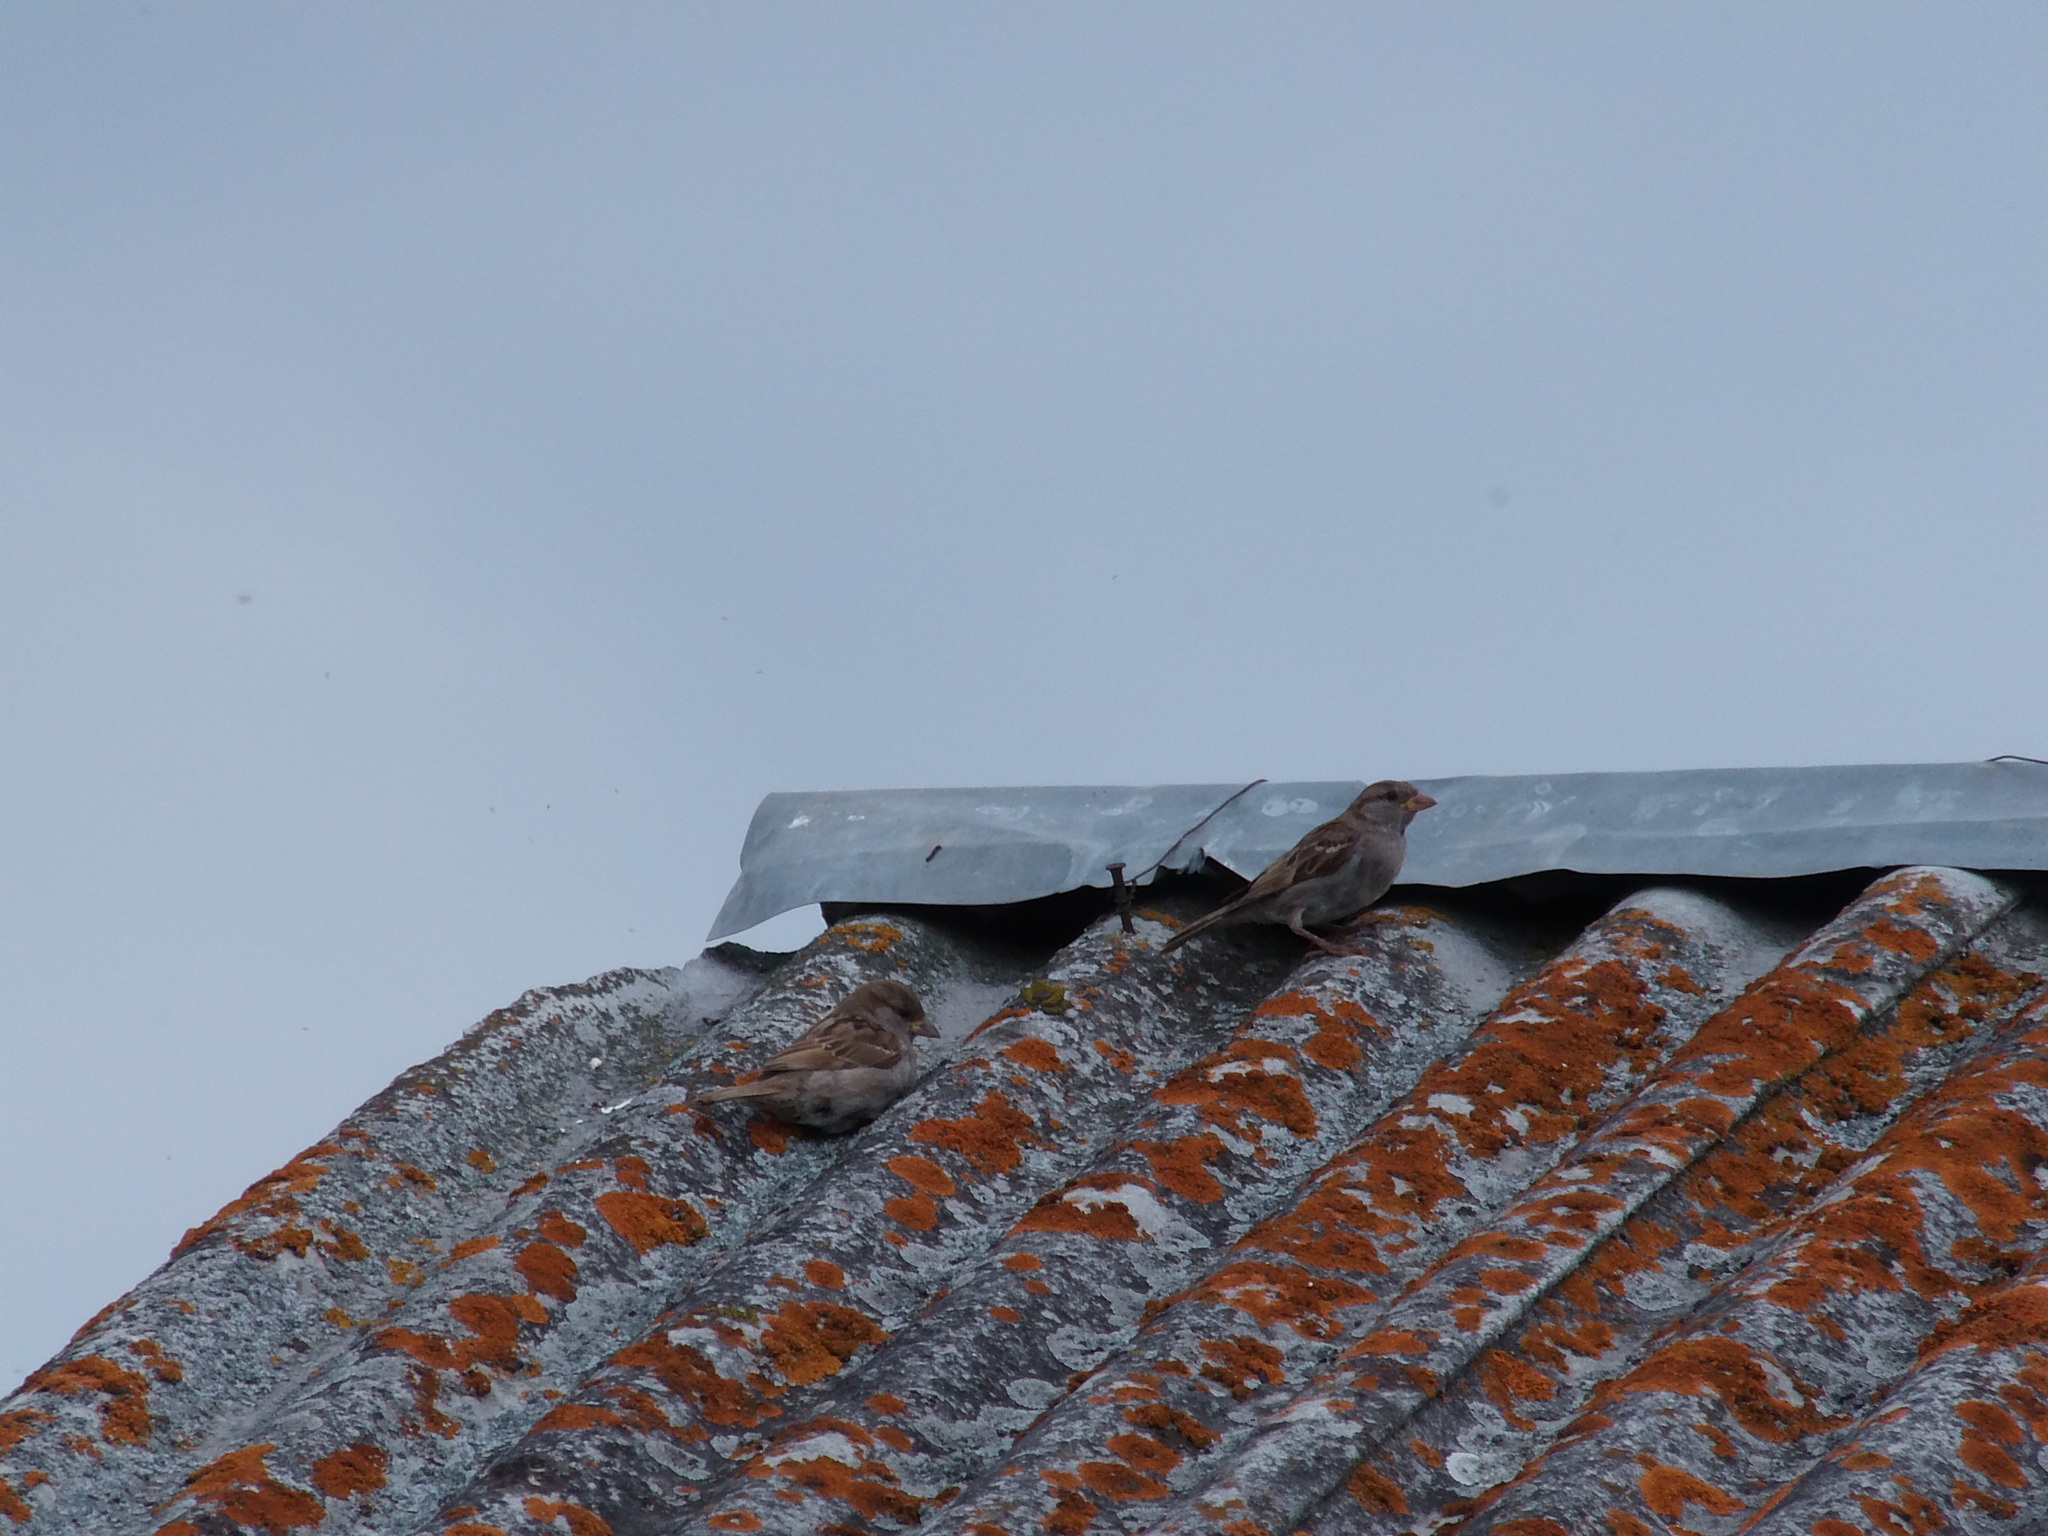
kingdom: Animalia
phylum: Chordata
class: Aves
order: Passeriformes
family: Passeridae
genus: Passer
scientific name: Passer domesticus
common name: House sparrow
